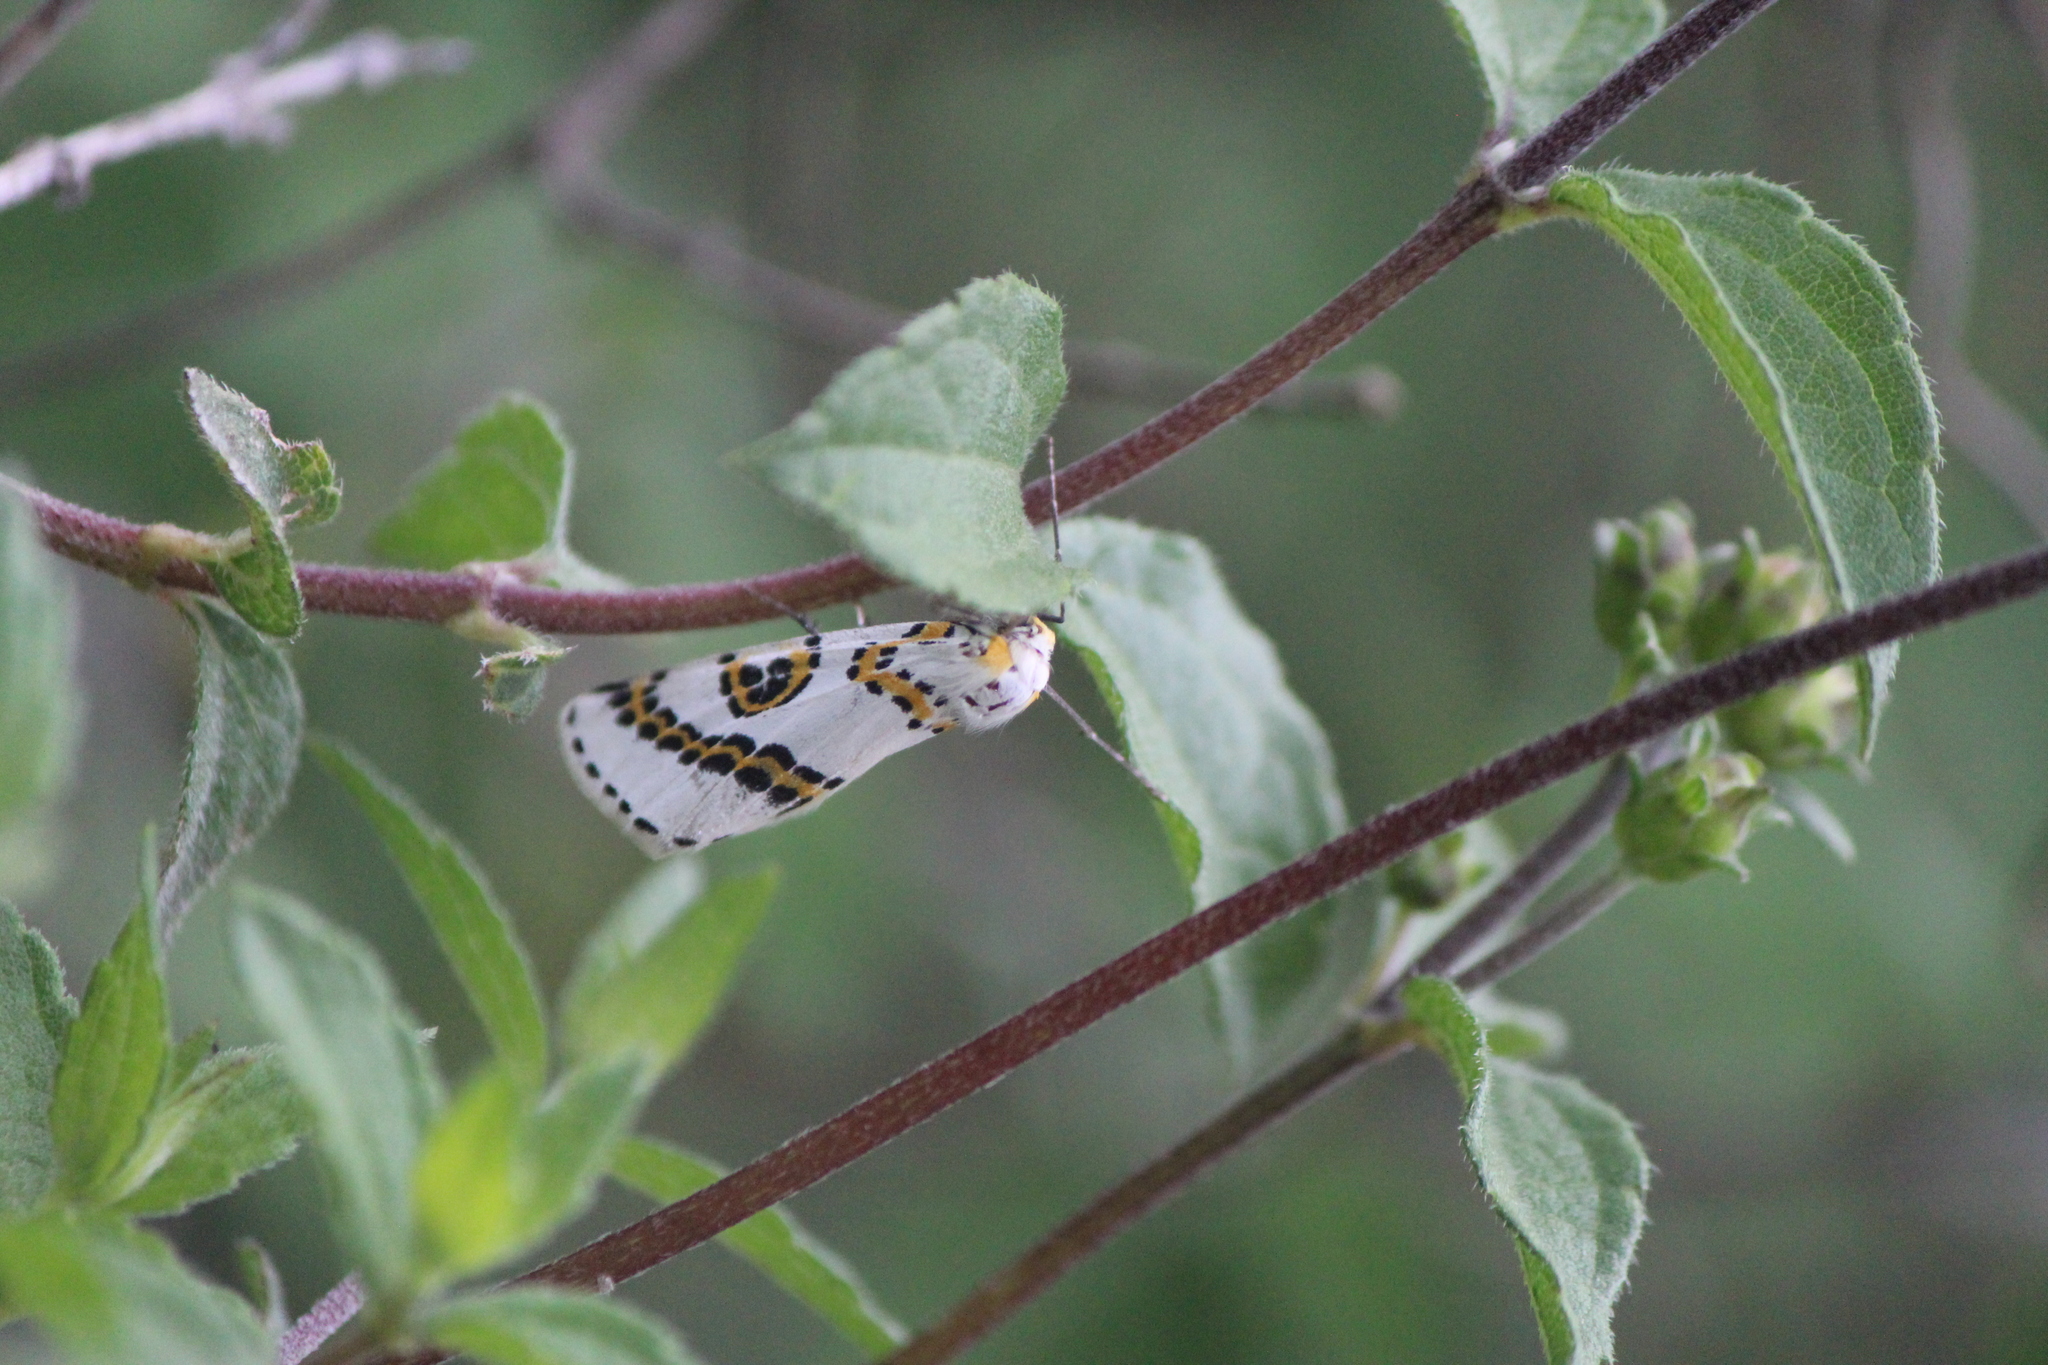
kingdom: Animalia
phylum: Arthropoda
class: Insecta
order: Lepidoptera
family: Geometridae
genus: Philtraea
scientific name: Philtraea mexicana
